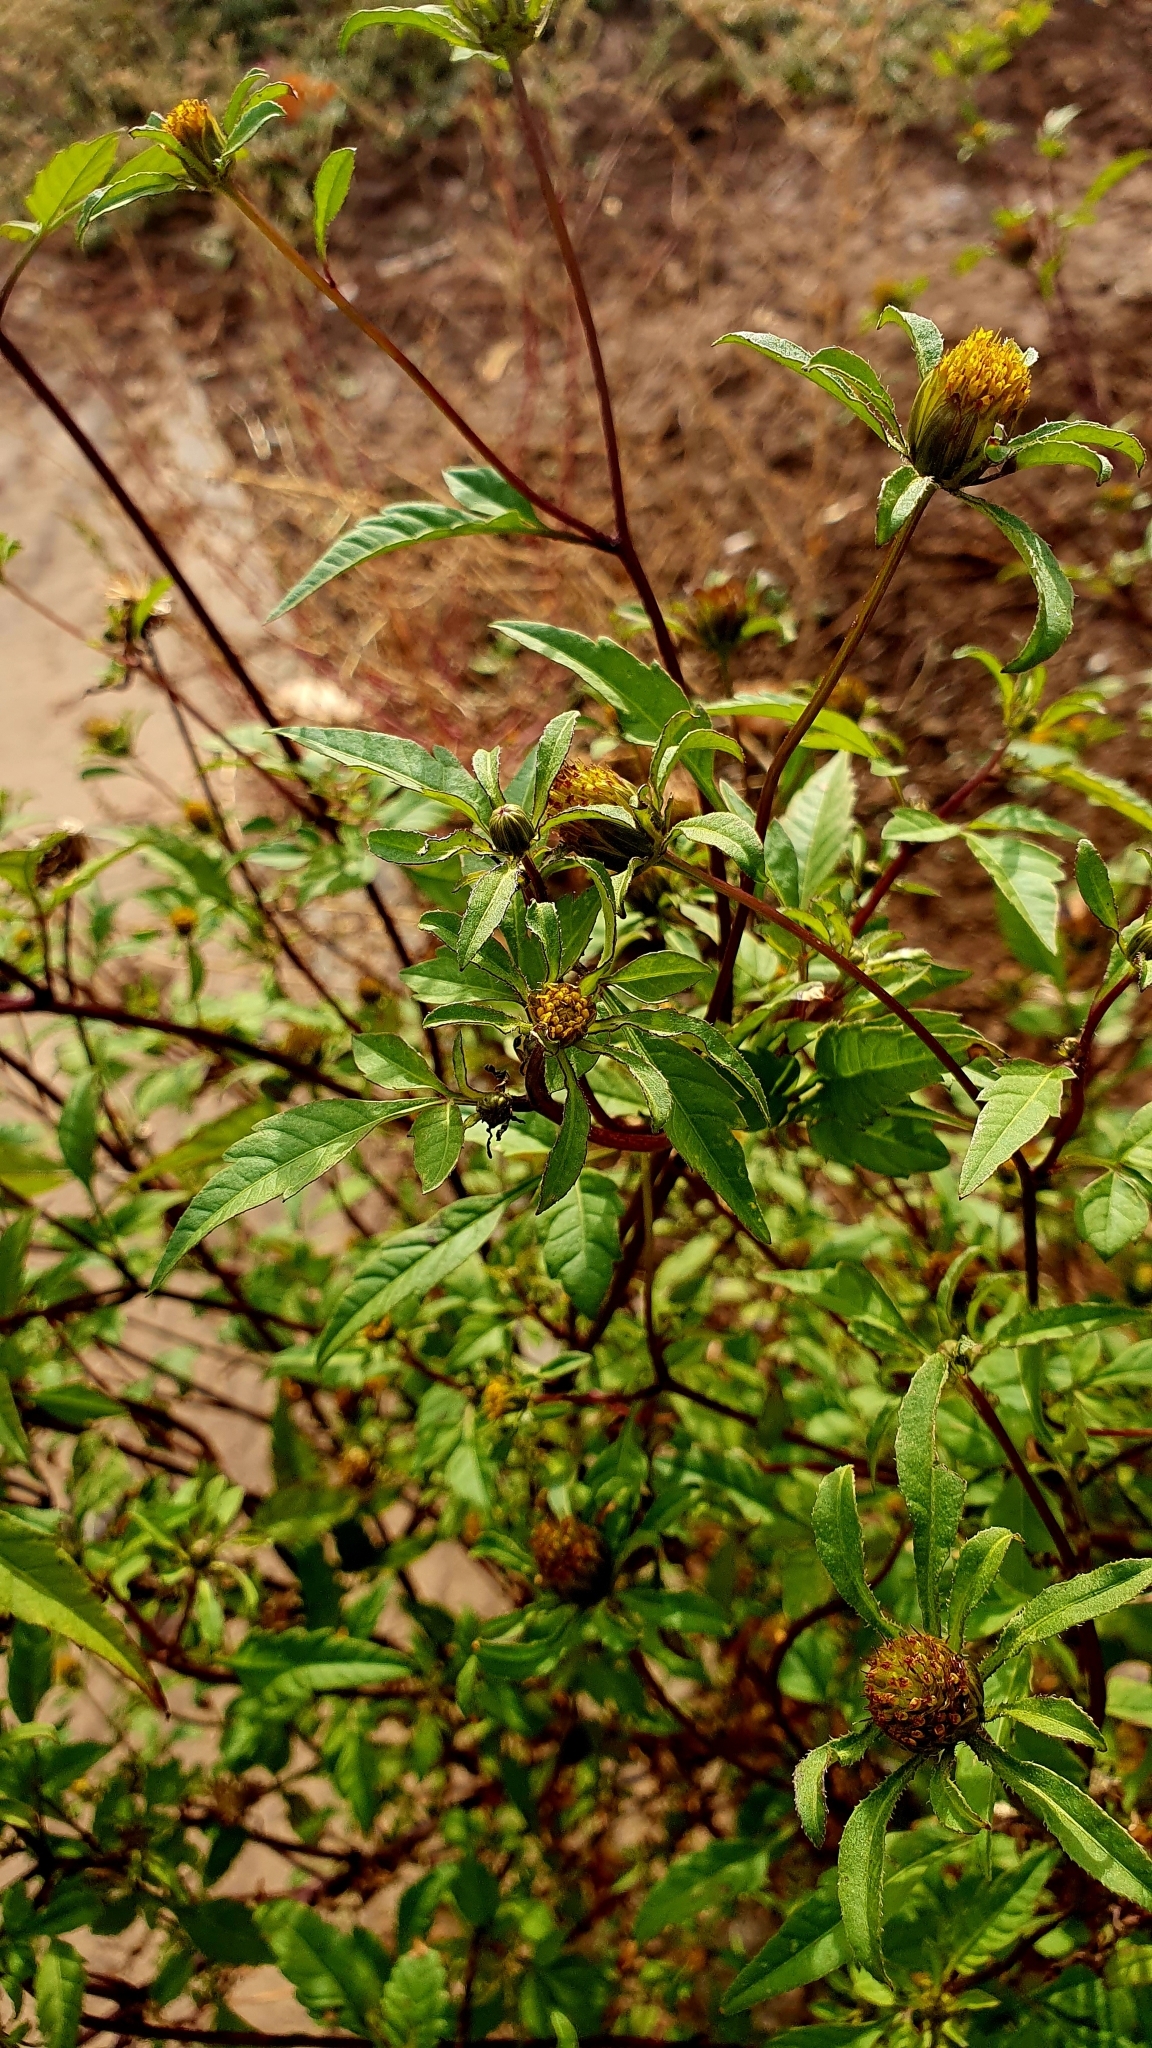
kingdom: Plantae
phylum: Tracheophyta
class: Magnoliopsida
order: Asterales
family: Asteraceae
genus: Bidens
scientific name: Bidens frondosa
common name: Beggarticks
